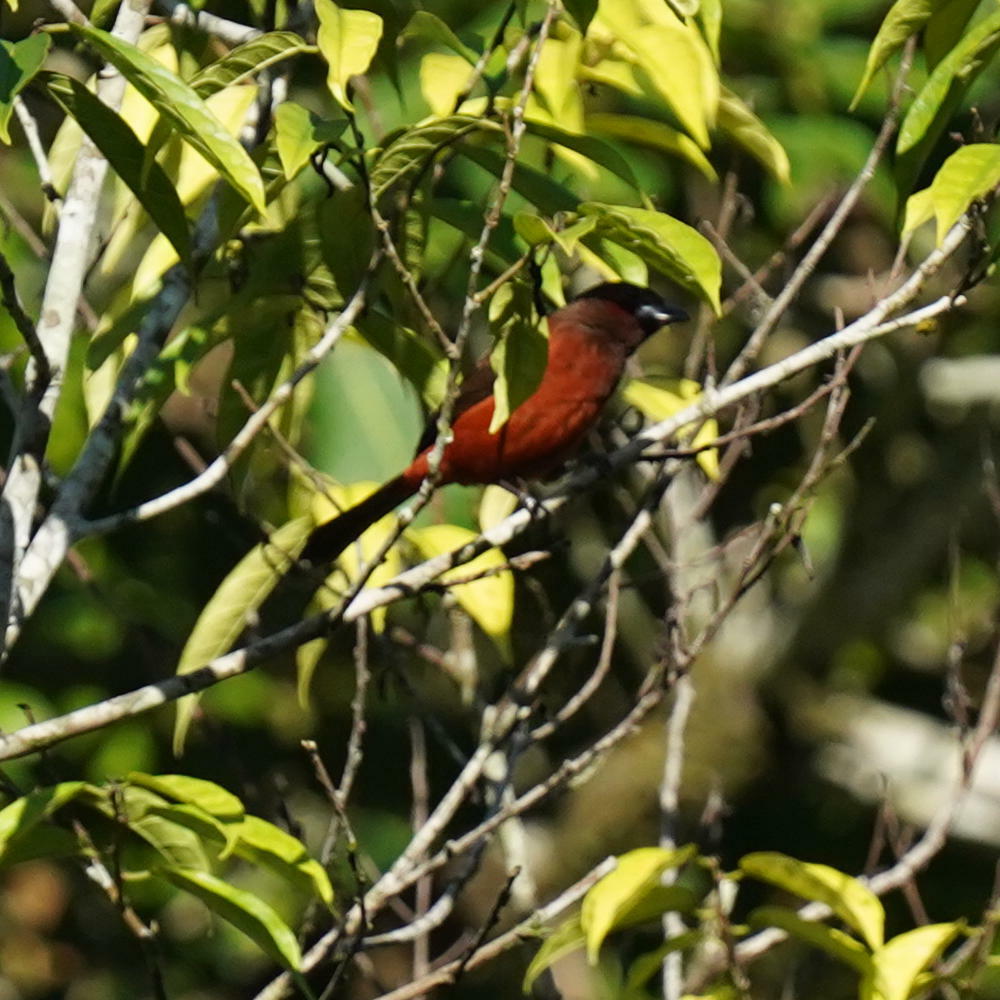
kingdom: Animalia
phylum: Chordata
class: Aves
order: Passeriformes
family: Thraupidae
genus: Ramphocelus
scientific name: Ramphocelus dimidiatus
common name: Crimson-backed tanager
